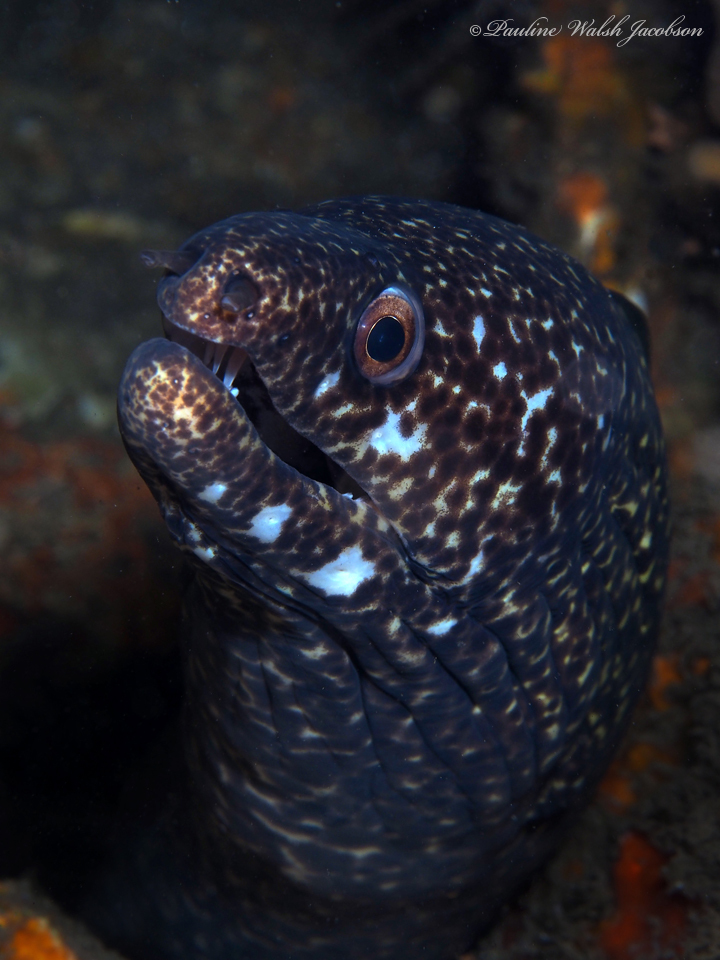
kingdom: Animalia
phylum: Chordata
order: Anguilliformes
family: Muraenidae
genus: Gymnothorax
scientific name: Gymnothorax moringa
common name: Spotted moray
